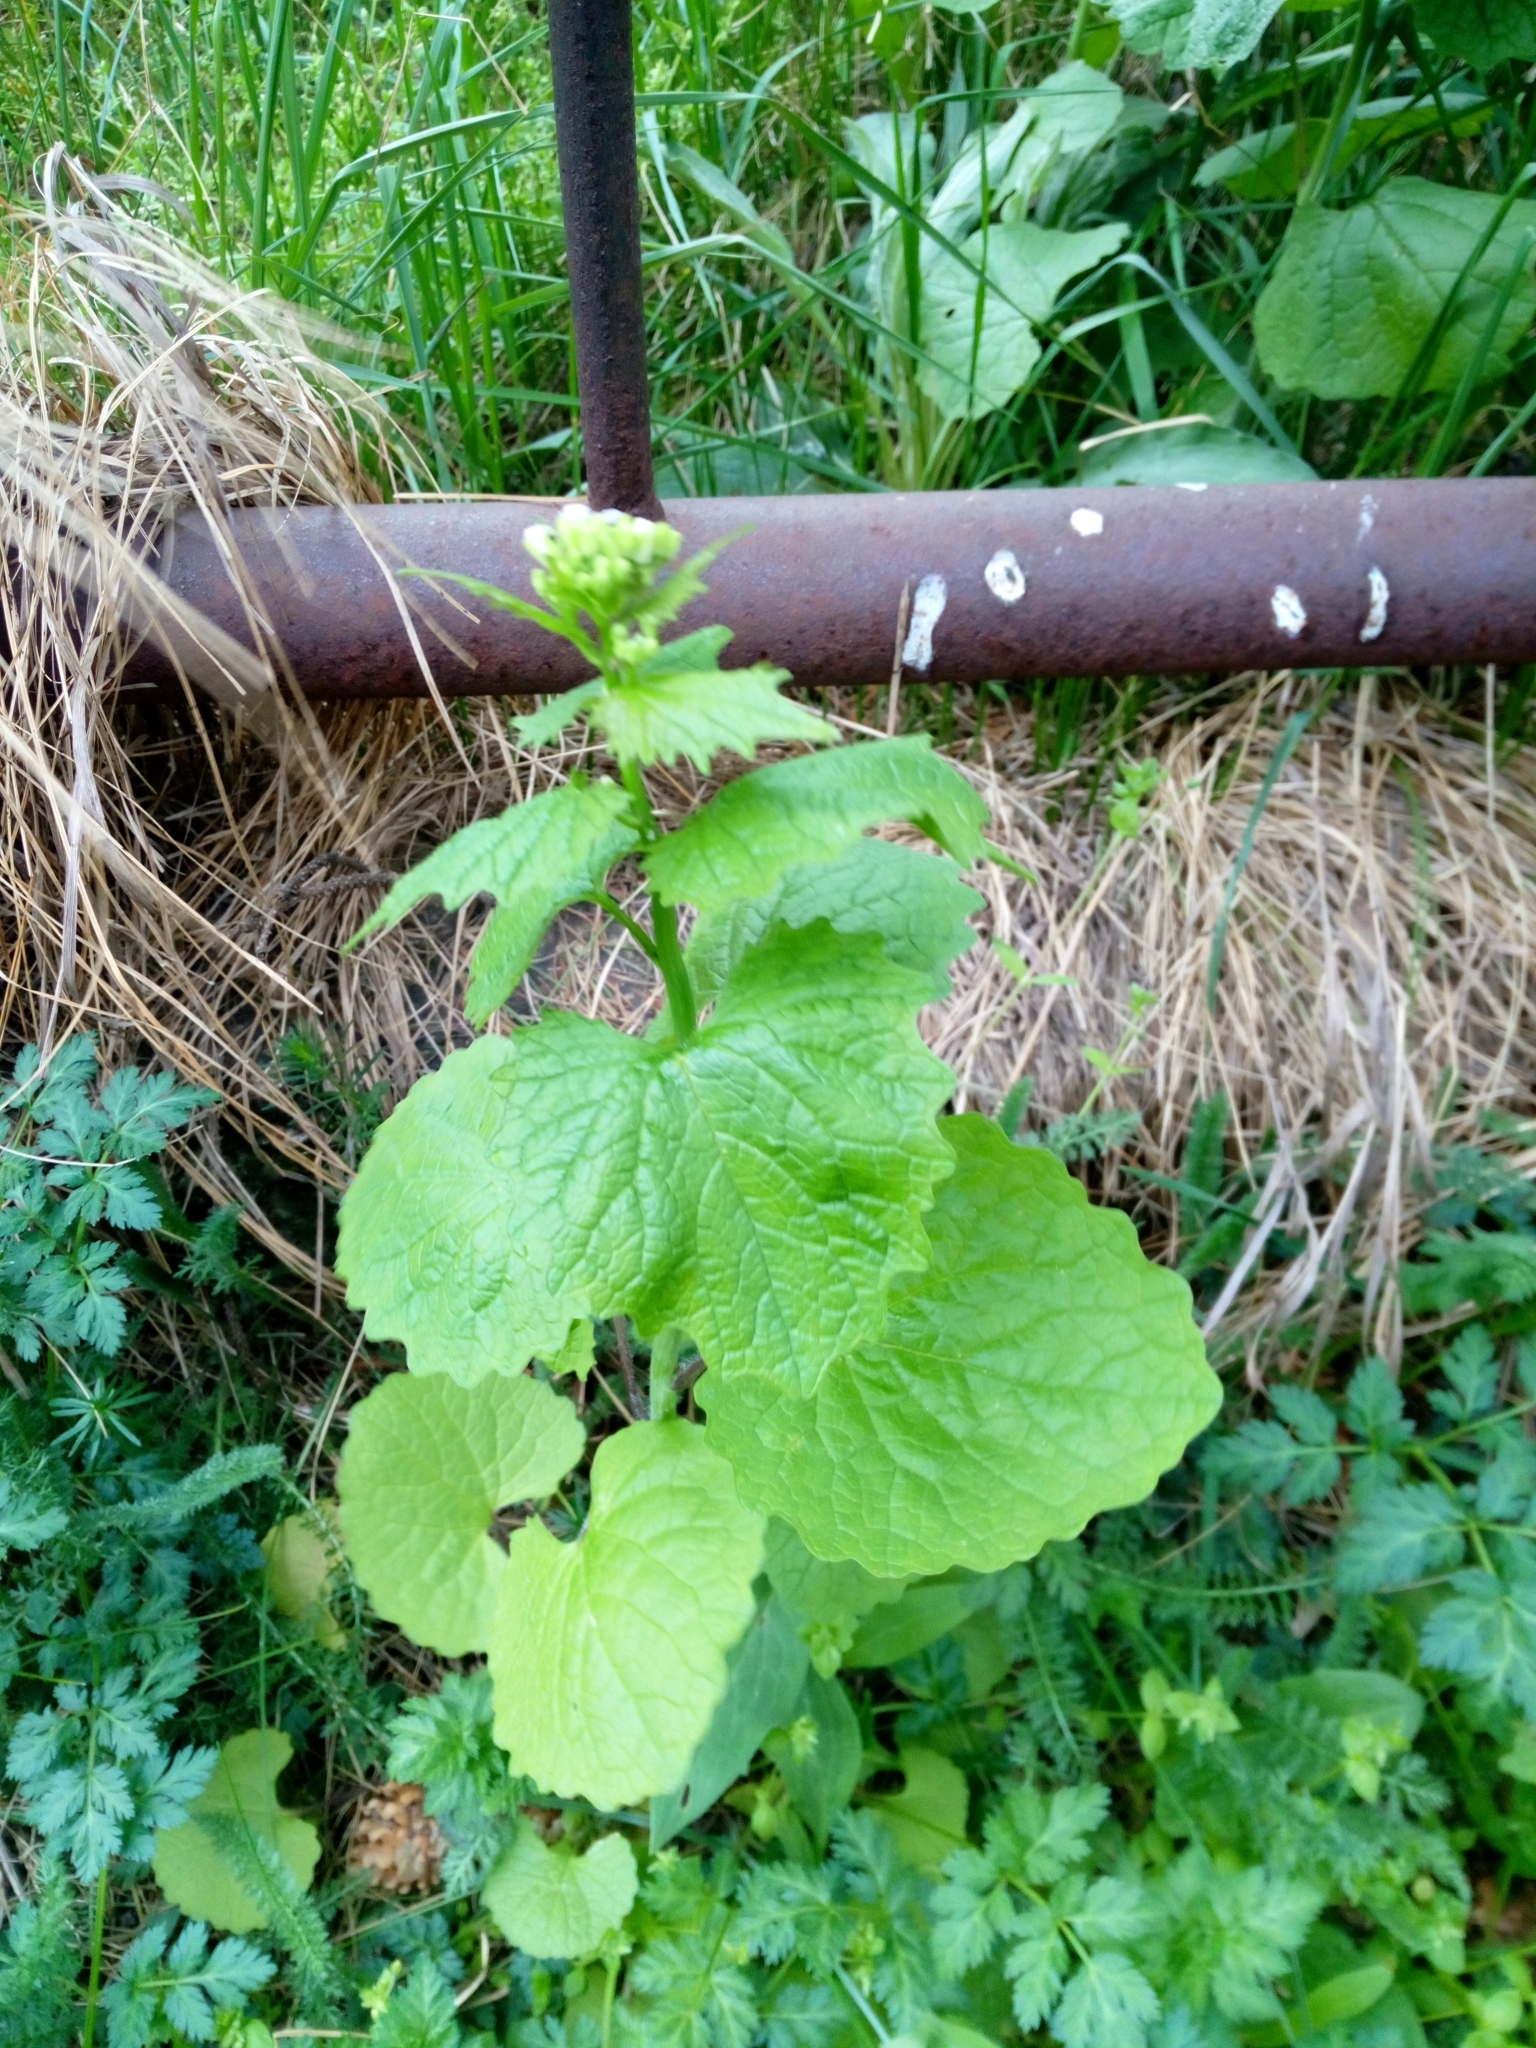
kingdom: Plantae
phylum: Tracheophyta
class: Magnoliopsida
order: Brassicales
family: Brassicaceae
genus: Alliaria
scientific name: Alliaria petiolata
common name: Garlic mustard
